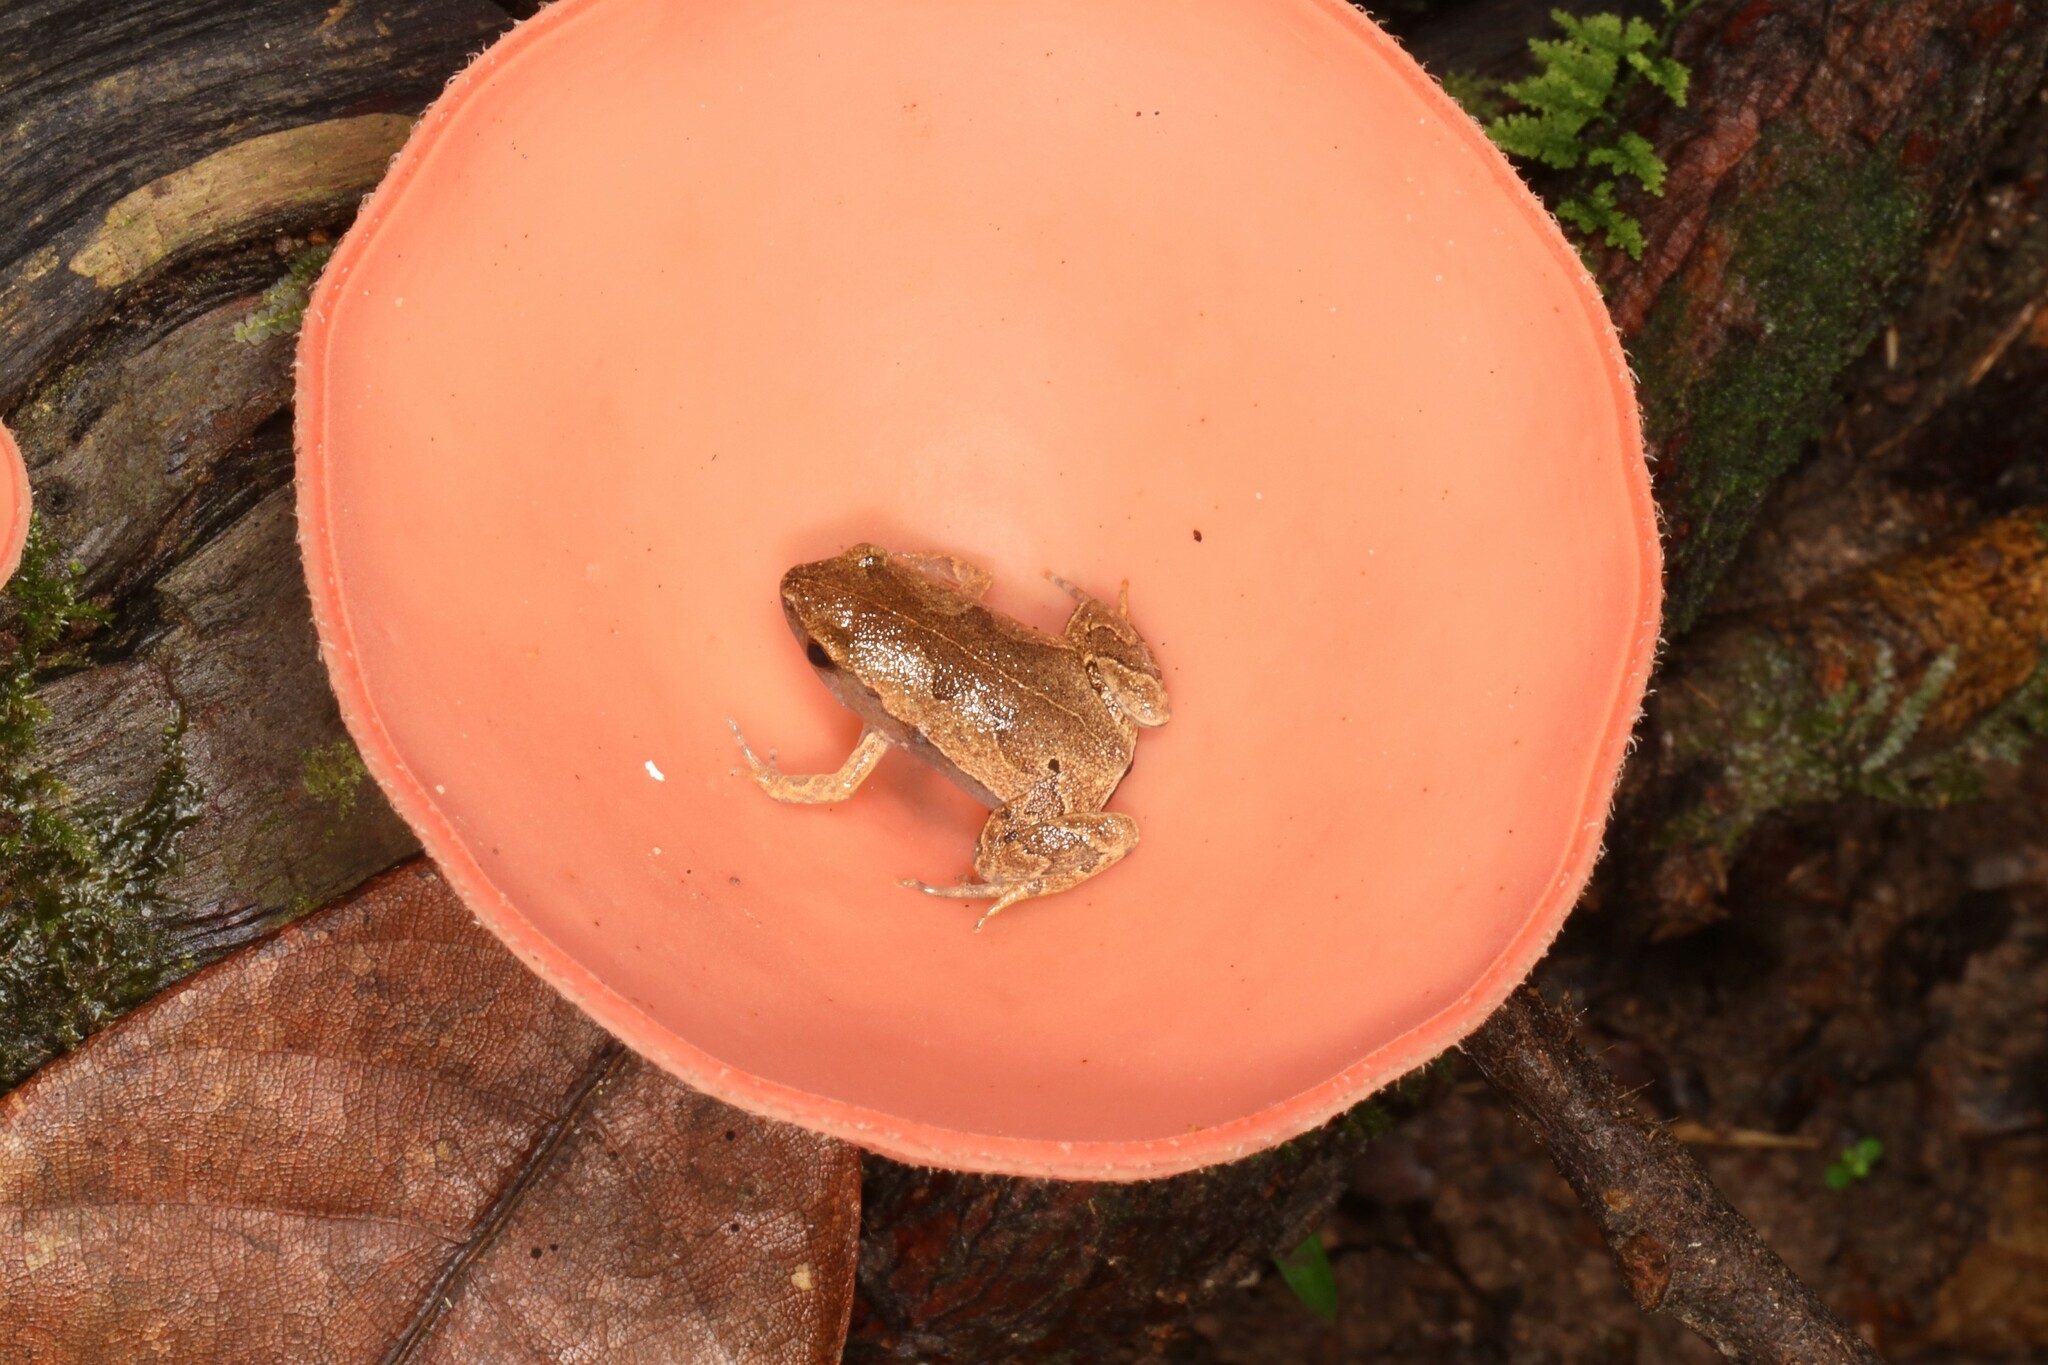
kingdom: Animalia
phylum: Chordata
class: Amphibia
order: Anura
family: Microhylidae
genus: Hamptophryne
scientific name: Hamptophryne boliviana
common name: Bolivian bleating frog
